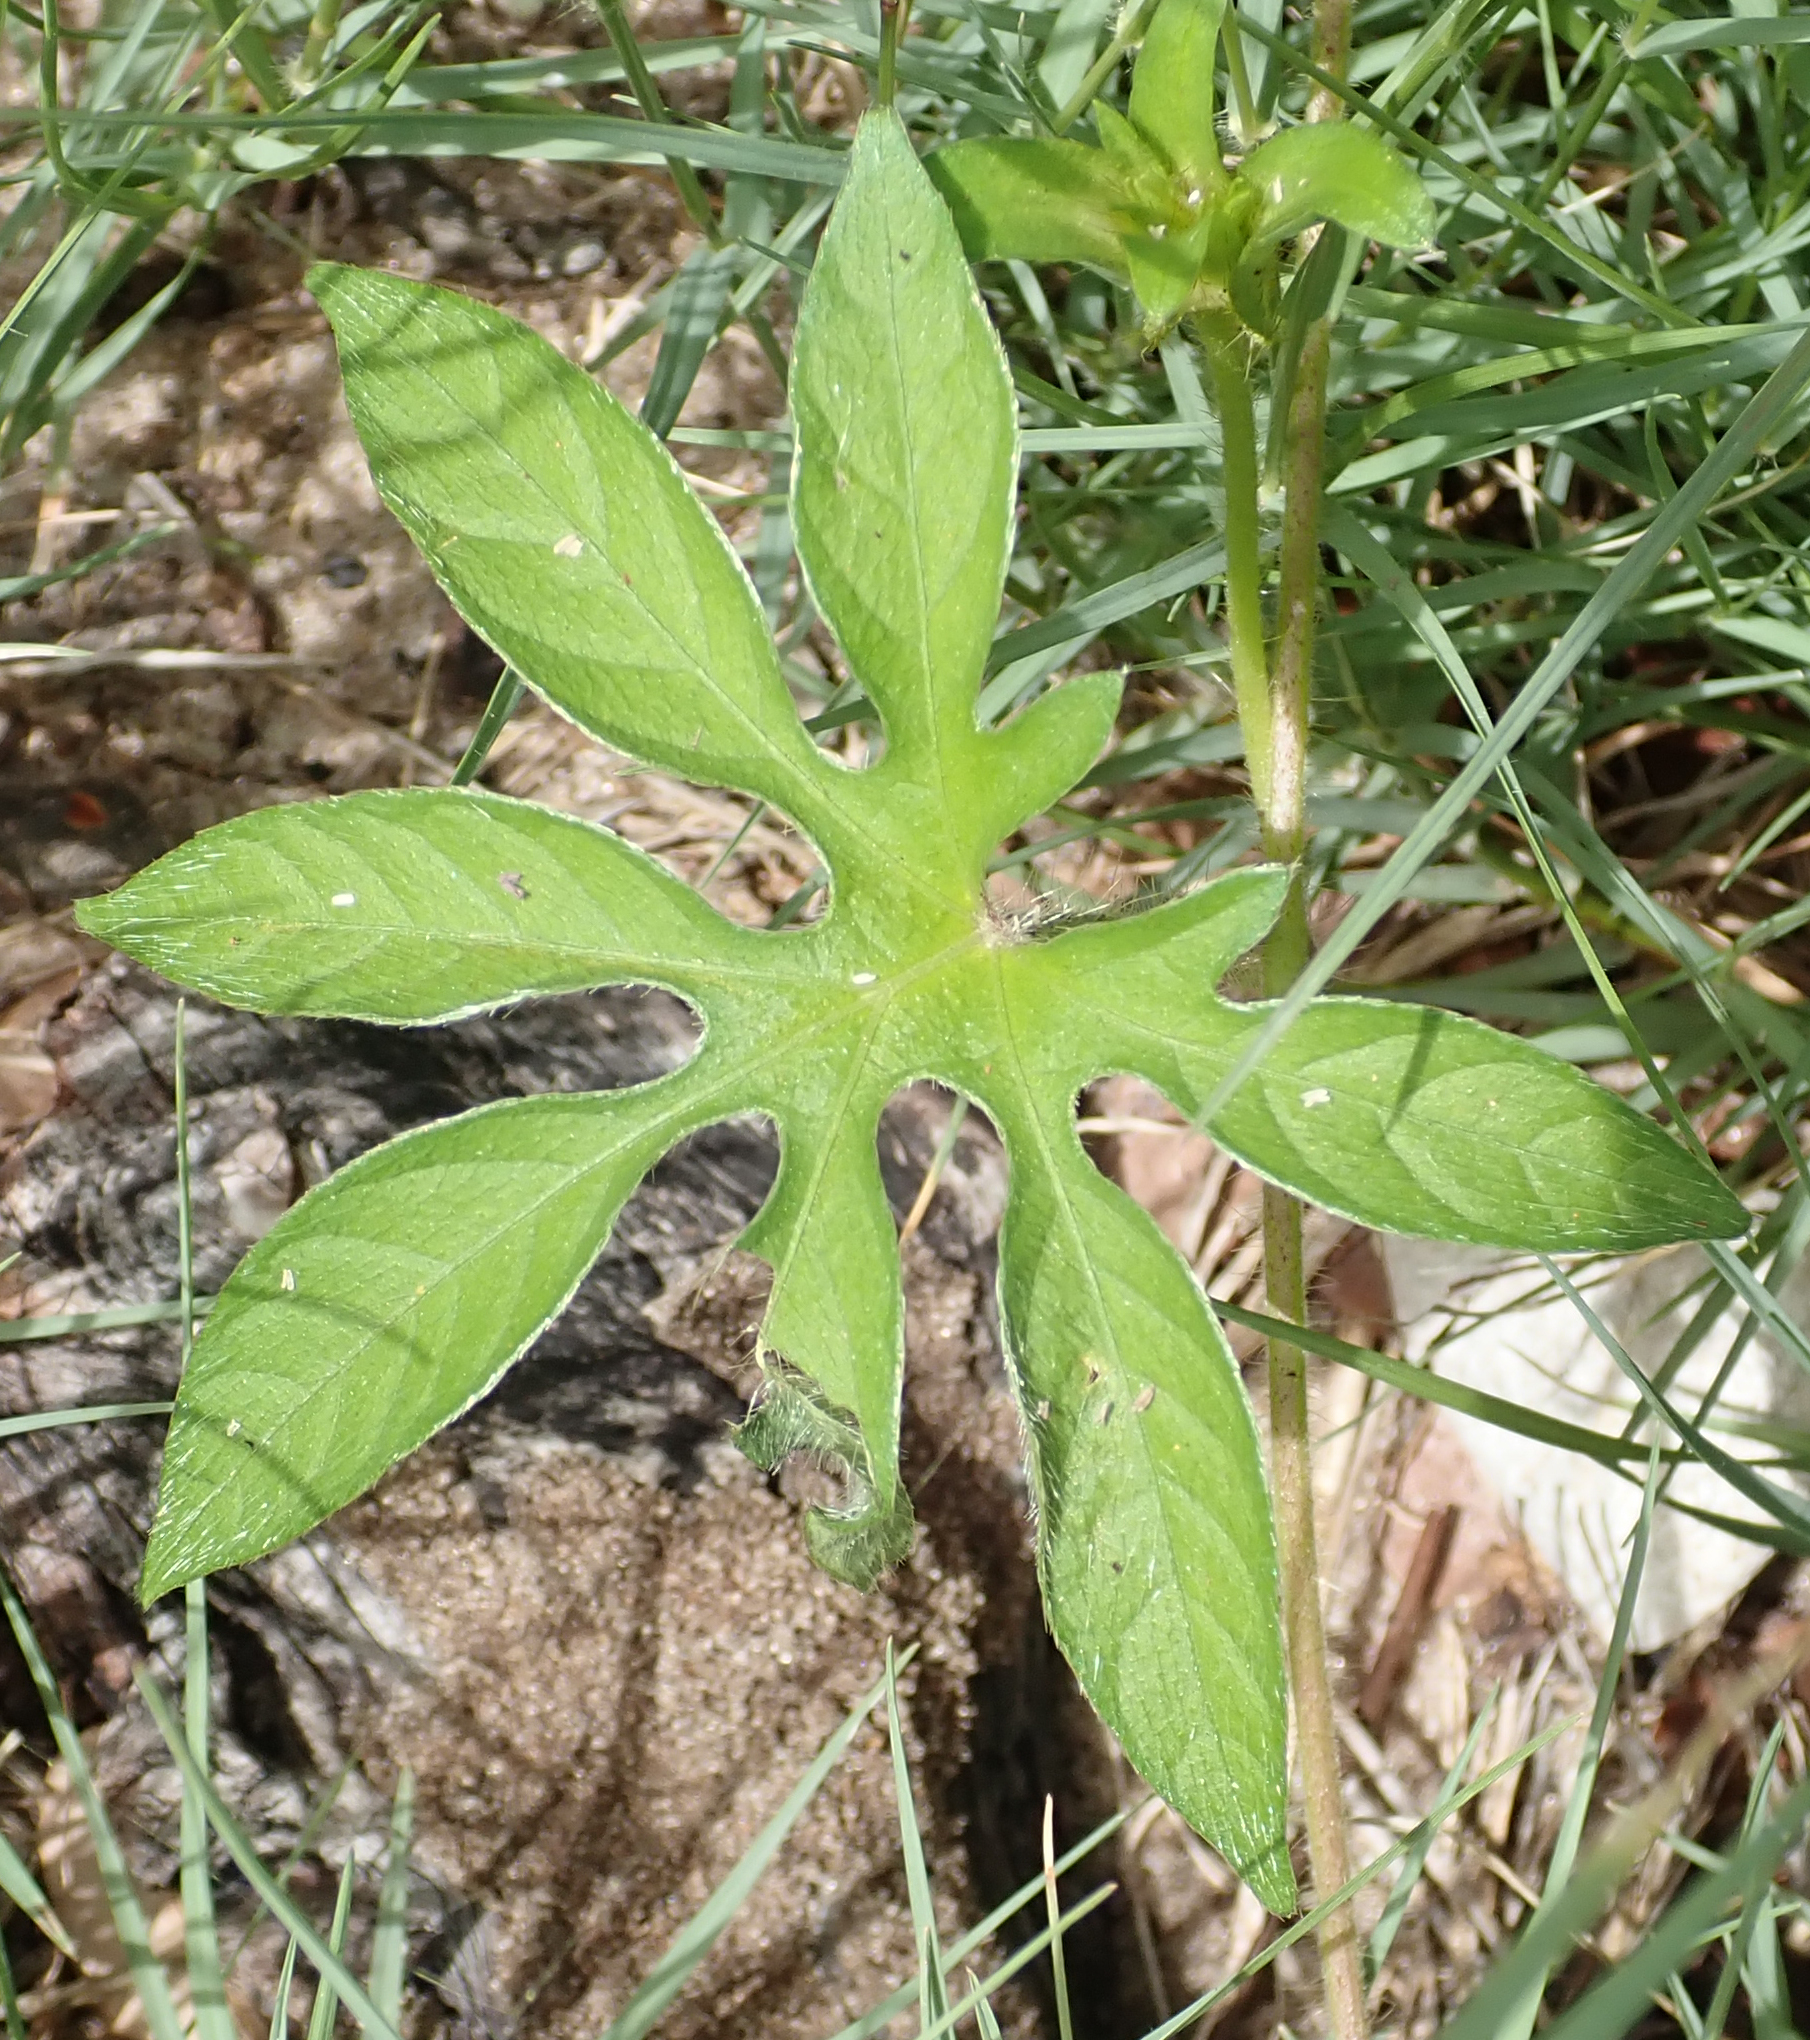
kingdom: Plantae
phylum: Tracheophyta
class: Magnoliopsida
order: Solanales
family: Convolvulaceae
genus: Ipomoea
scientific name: Ipomoea pes-tigridis
